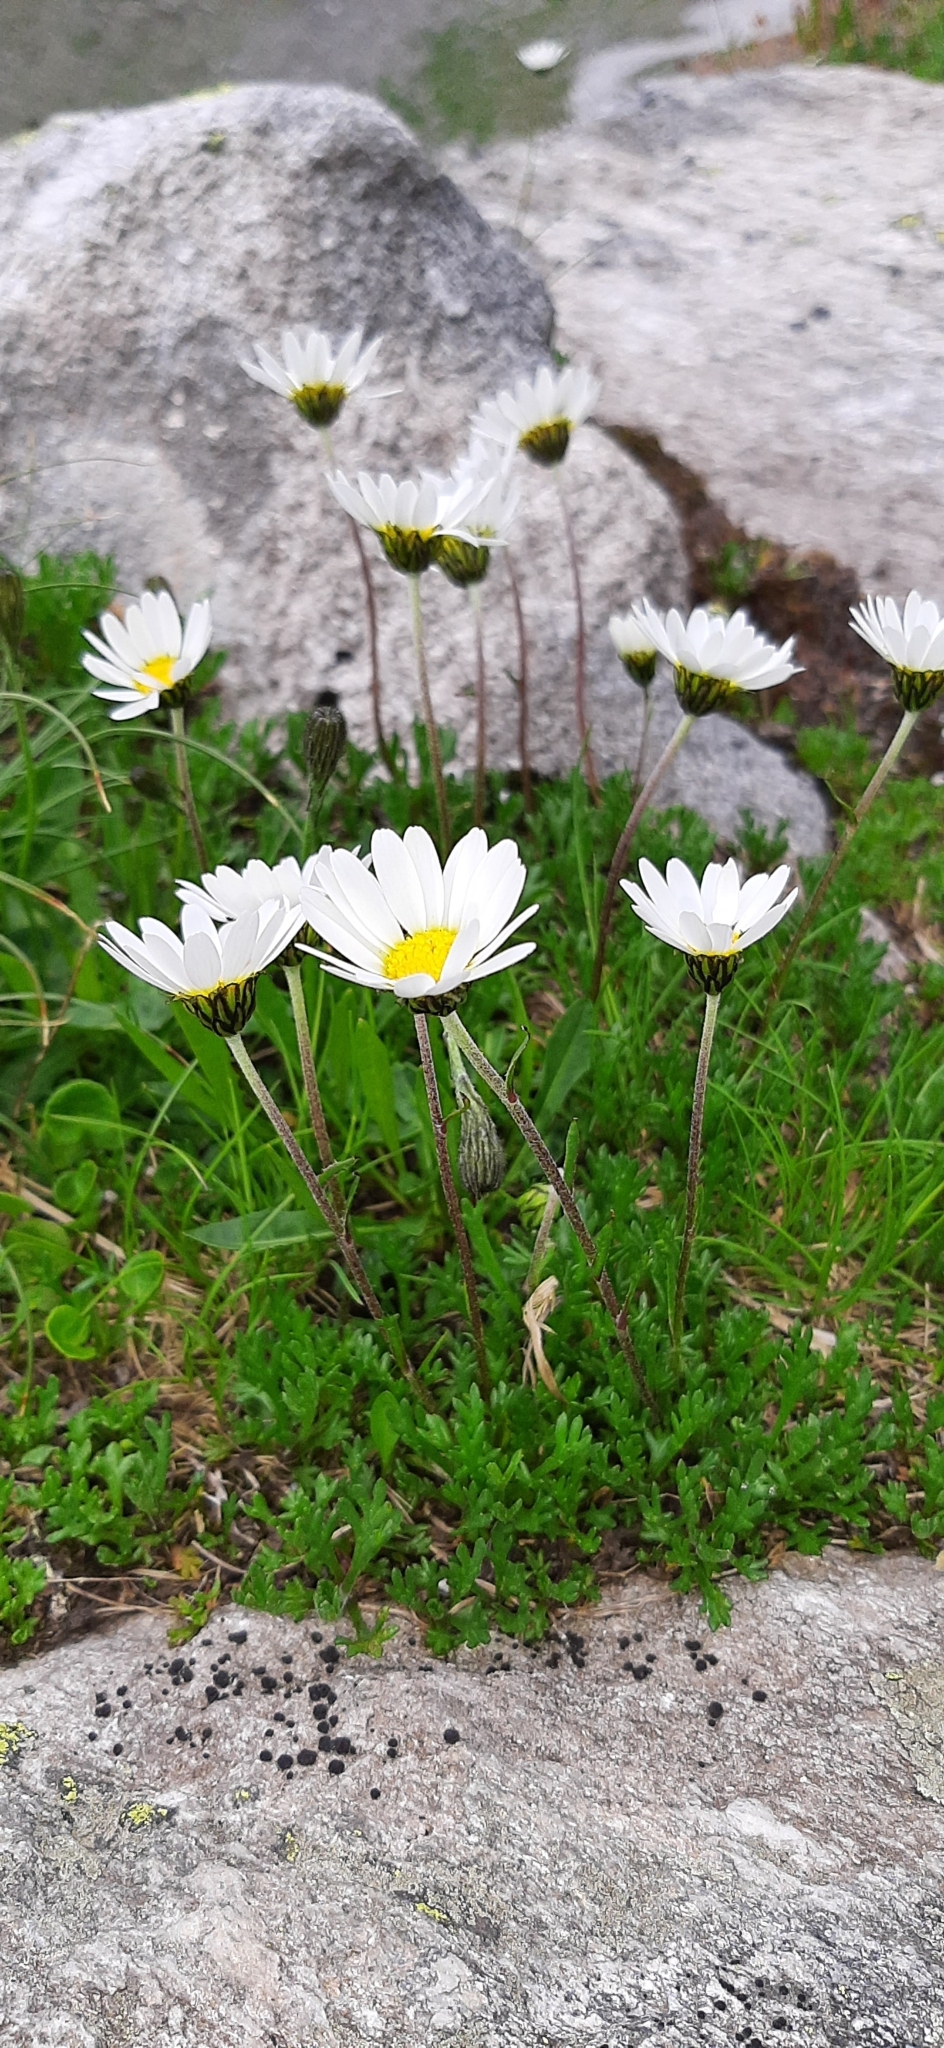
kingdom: Plantae
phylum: Tracheophyta
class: Magnoliopsida
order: Asterales
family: Asteraceae
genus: Leucanthemopsis
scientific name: Leucanthemopsis alpina
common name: Alpine moon daisy
